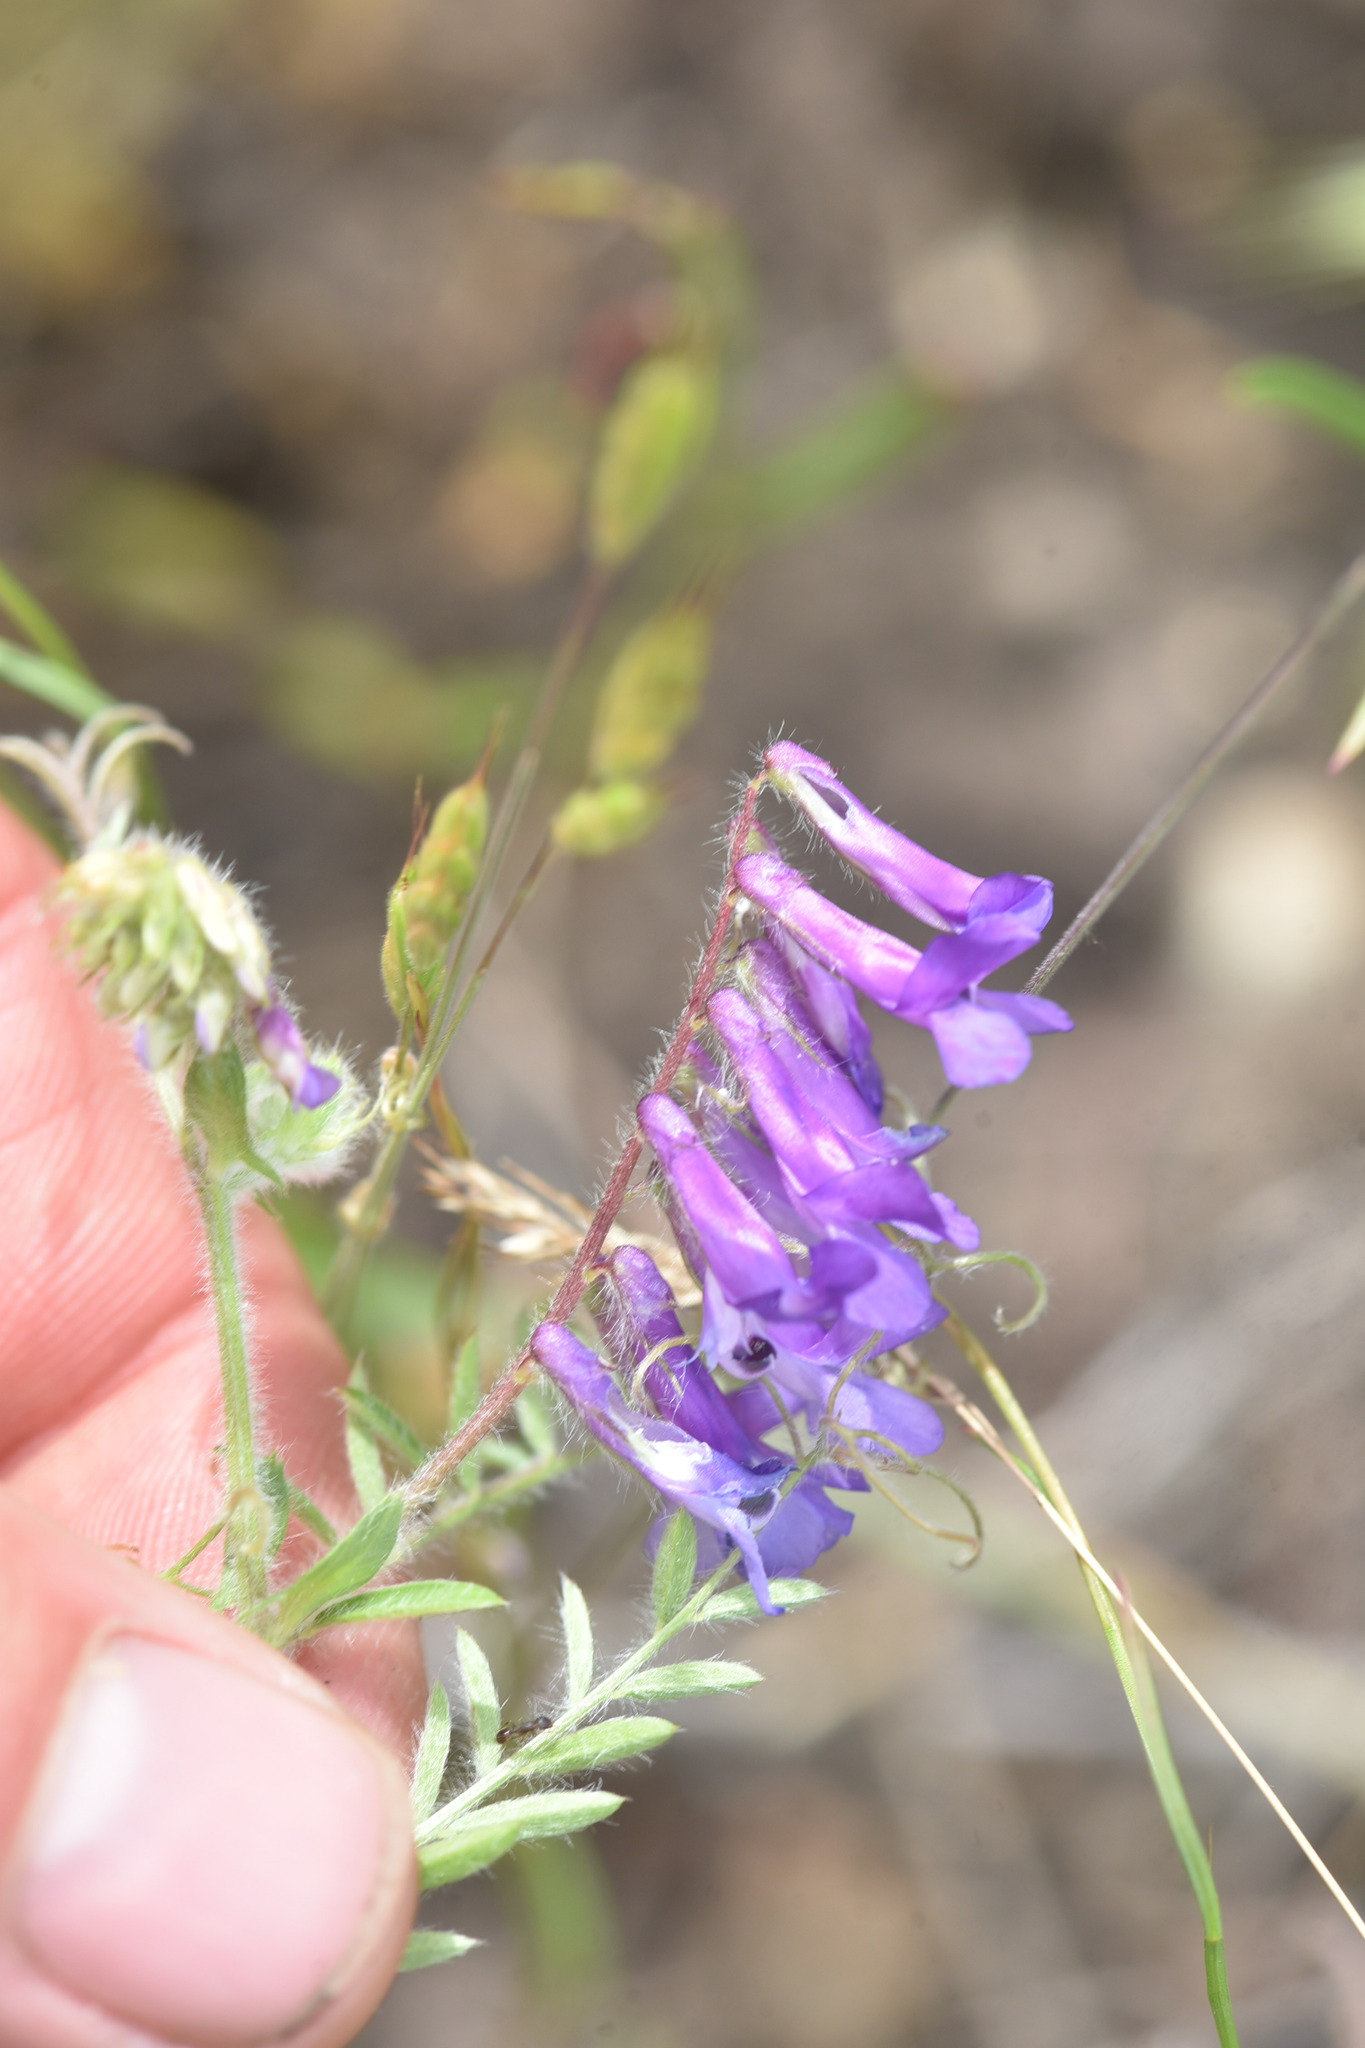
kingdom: Plantae
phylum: Tracheophyta
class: Magnoliopsida
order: Fabales
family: Fabaceae
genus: Vicia
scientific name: Vicia villosa
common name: Fodder vetch
